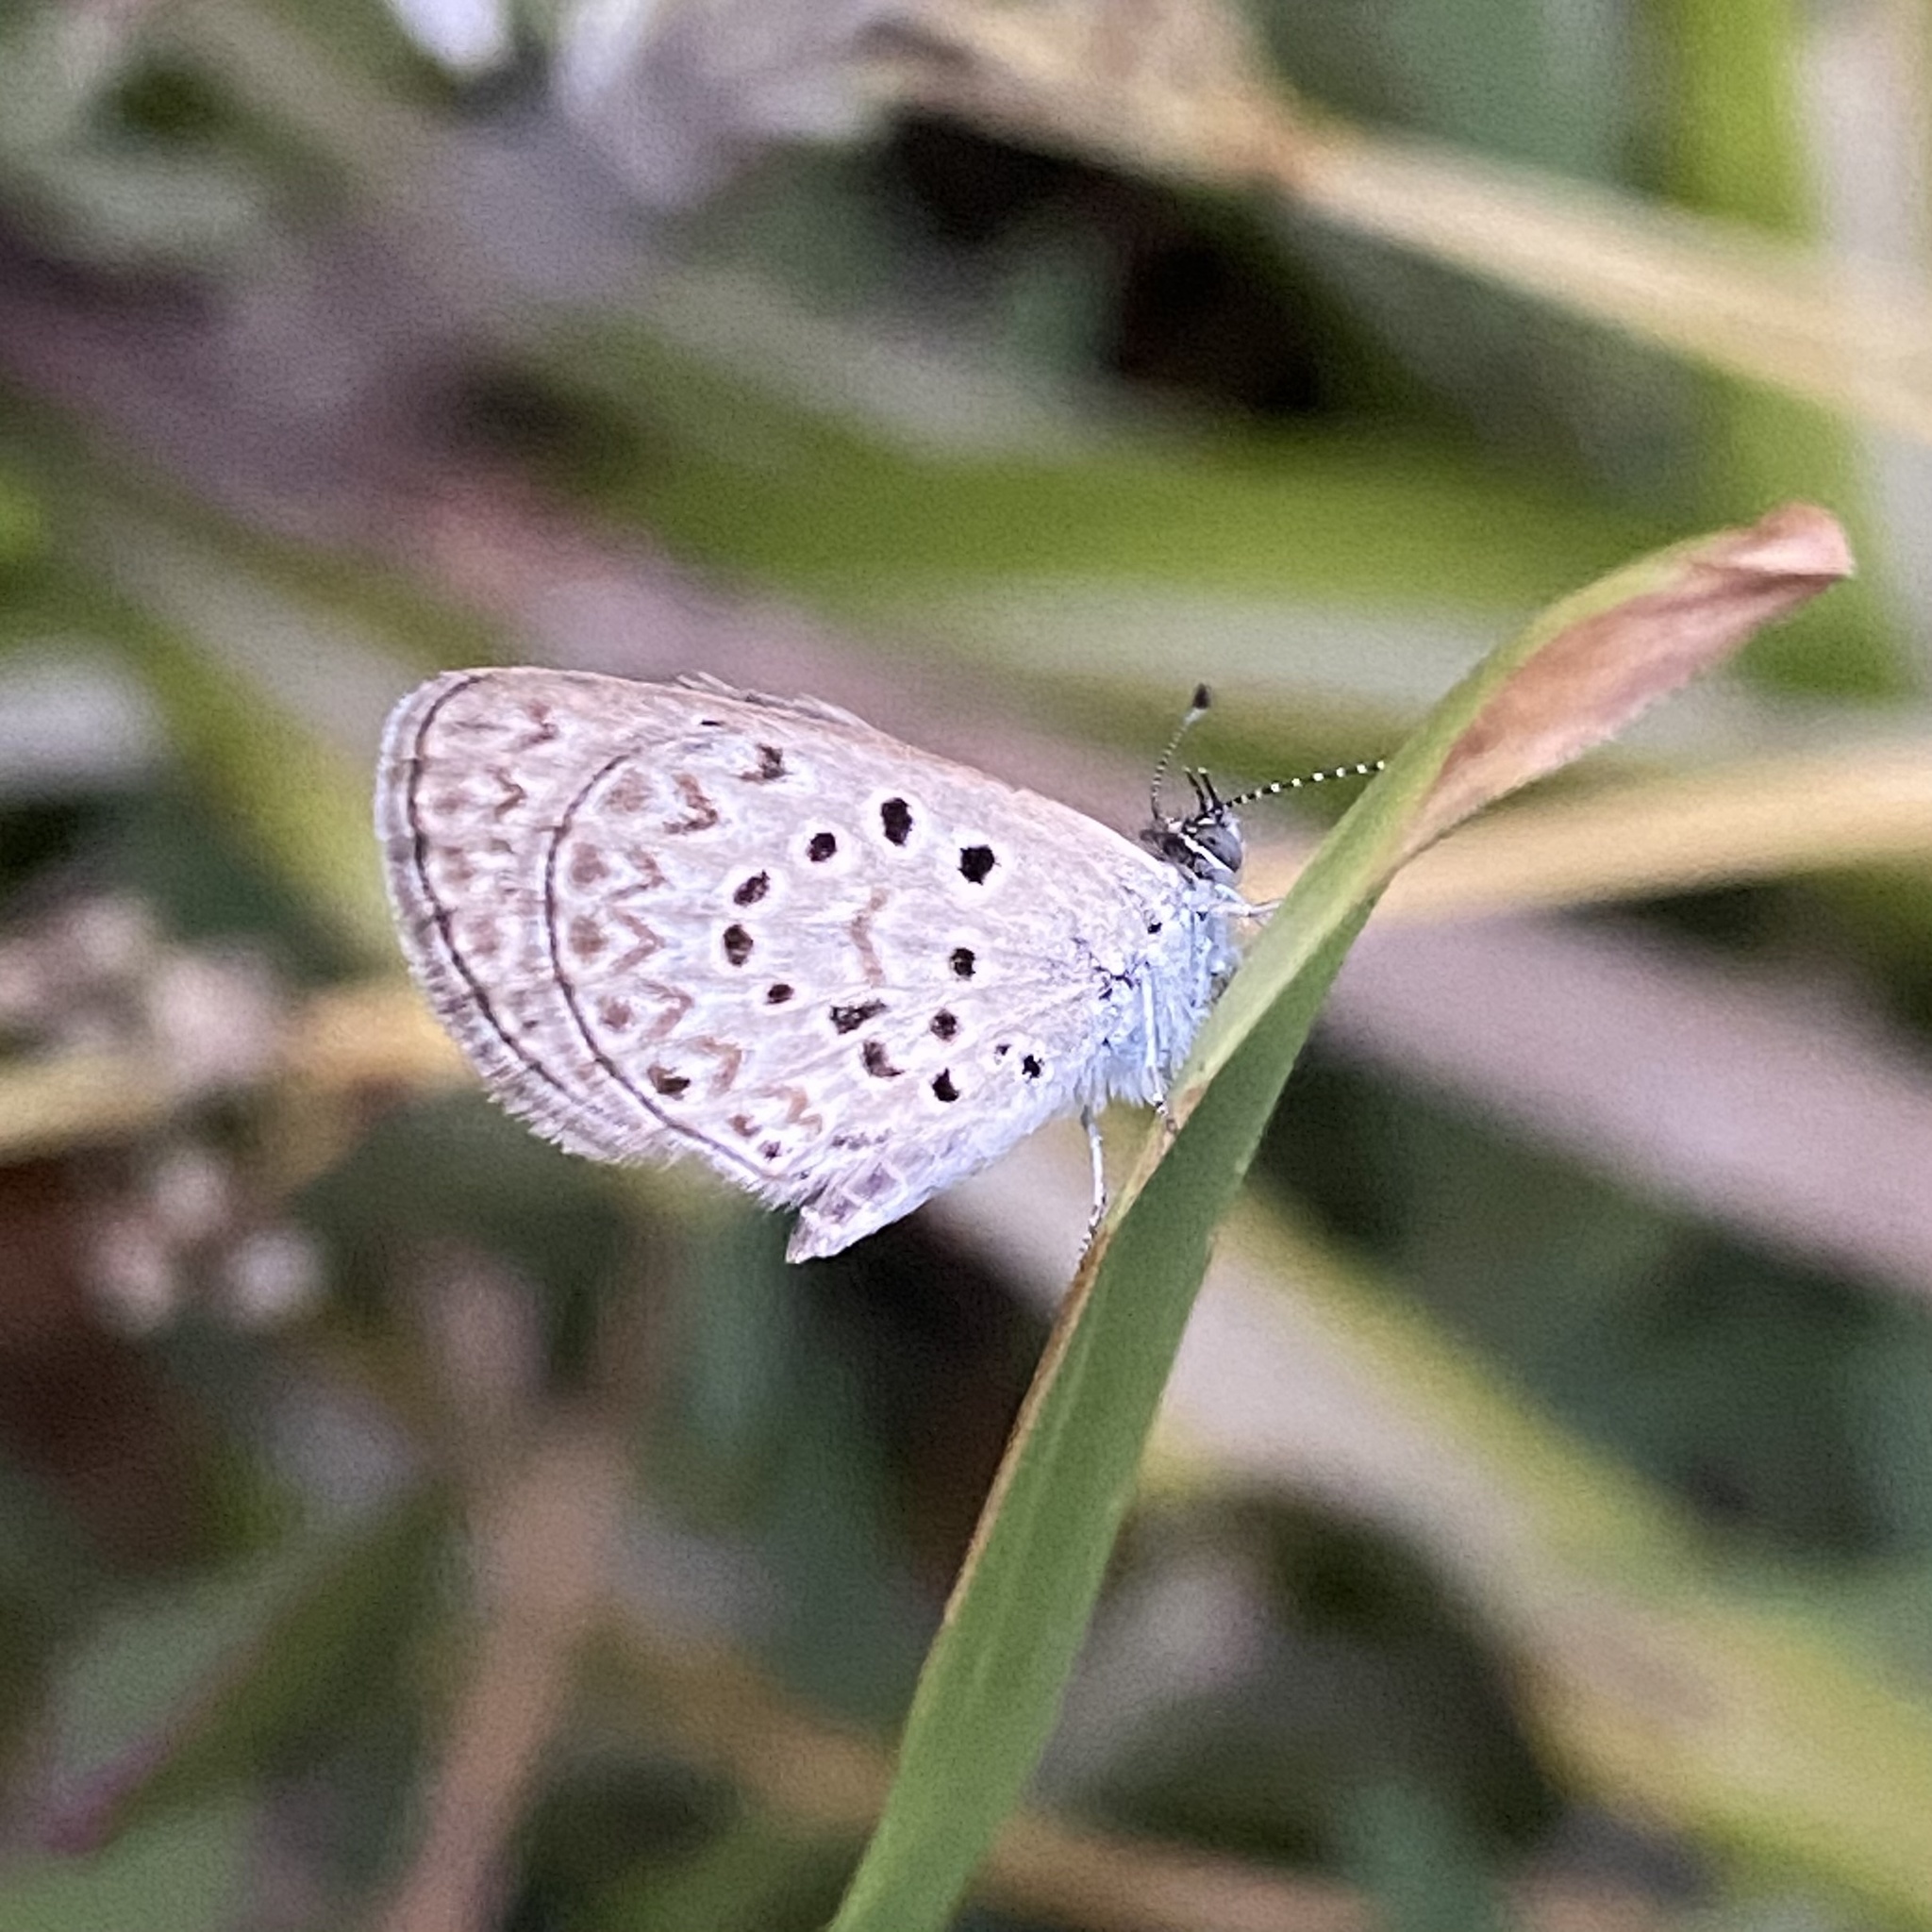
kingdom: Animalia
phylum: Arthropoda
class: Insecta
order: Lepidoptera
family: Lycaenidae
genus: Zizeeria
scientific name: Zizeeria knysna
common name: African grass blue
